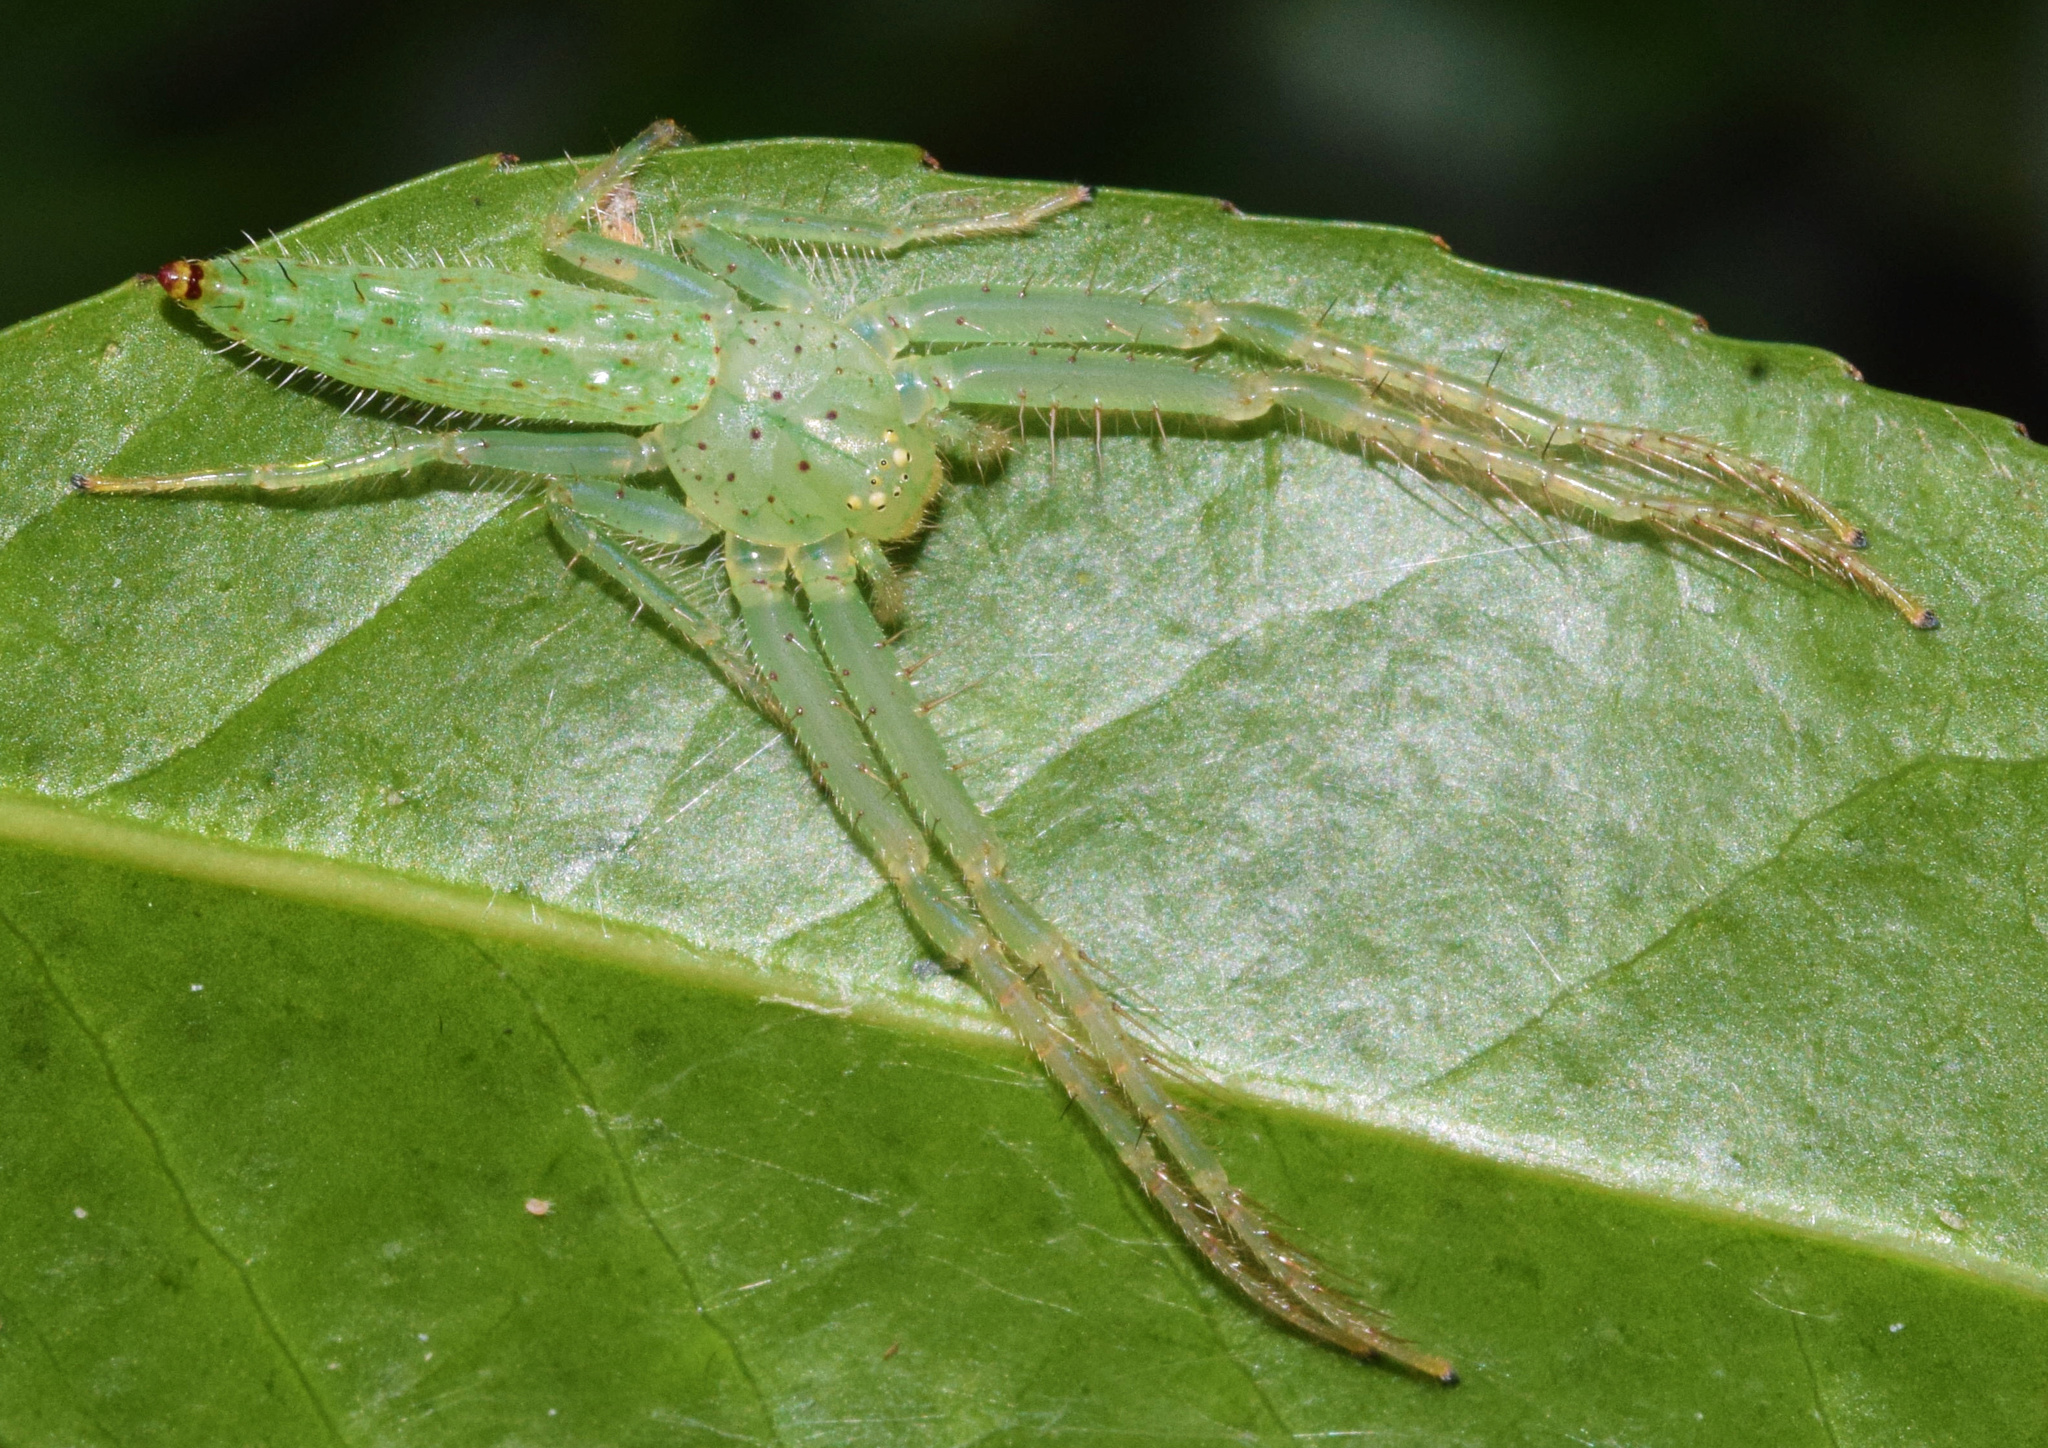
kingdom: Animalia
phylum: Arthropoda
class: Arachnida
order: Araneae
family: Thomisidae
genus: Oxytate
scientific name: Oxytate argenteooculata
